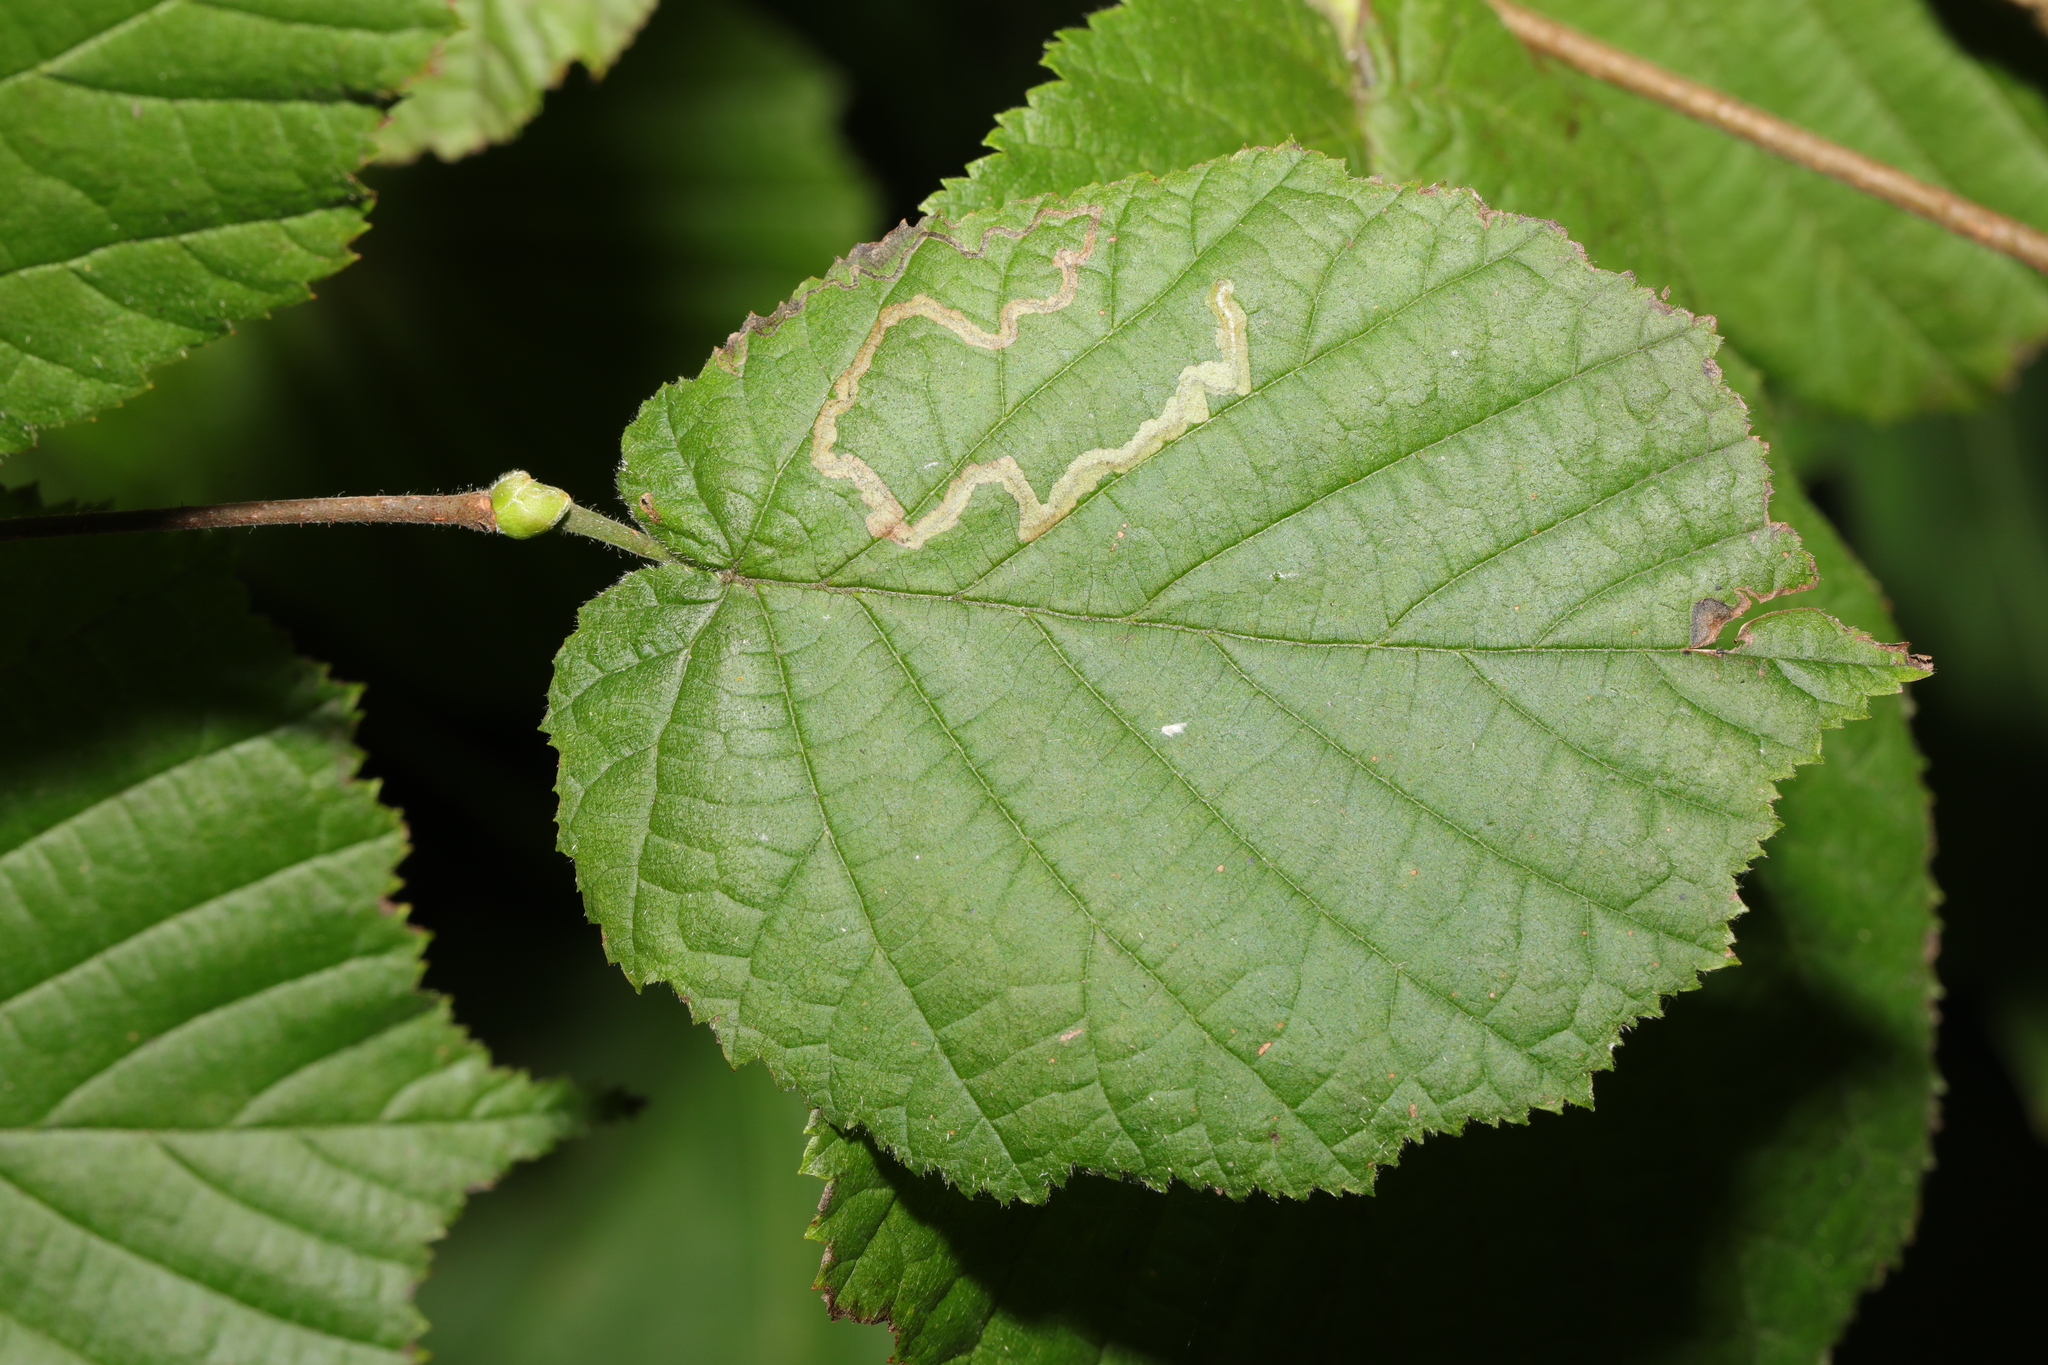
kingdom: Plantae
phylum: Tracheophyta
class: Magnoliopsida
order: Fagales
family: Betulaceae
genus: Corylus
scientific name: Corylus avellana
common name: European hazel
